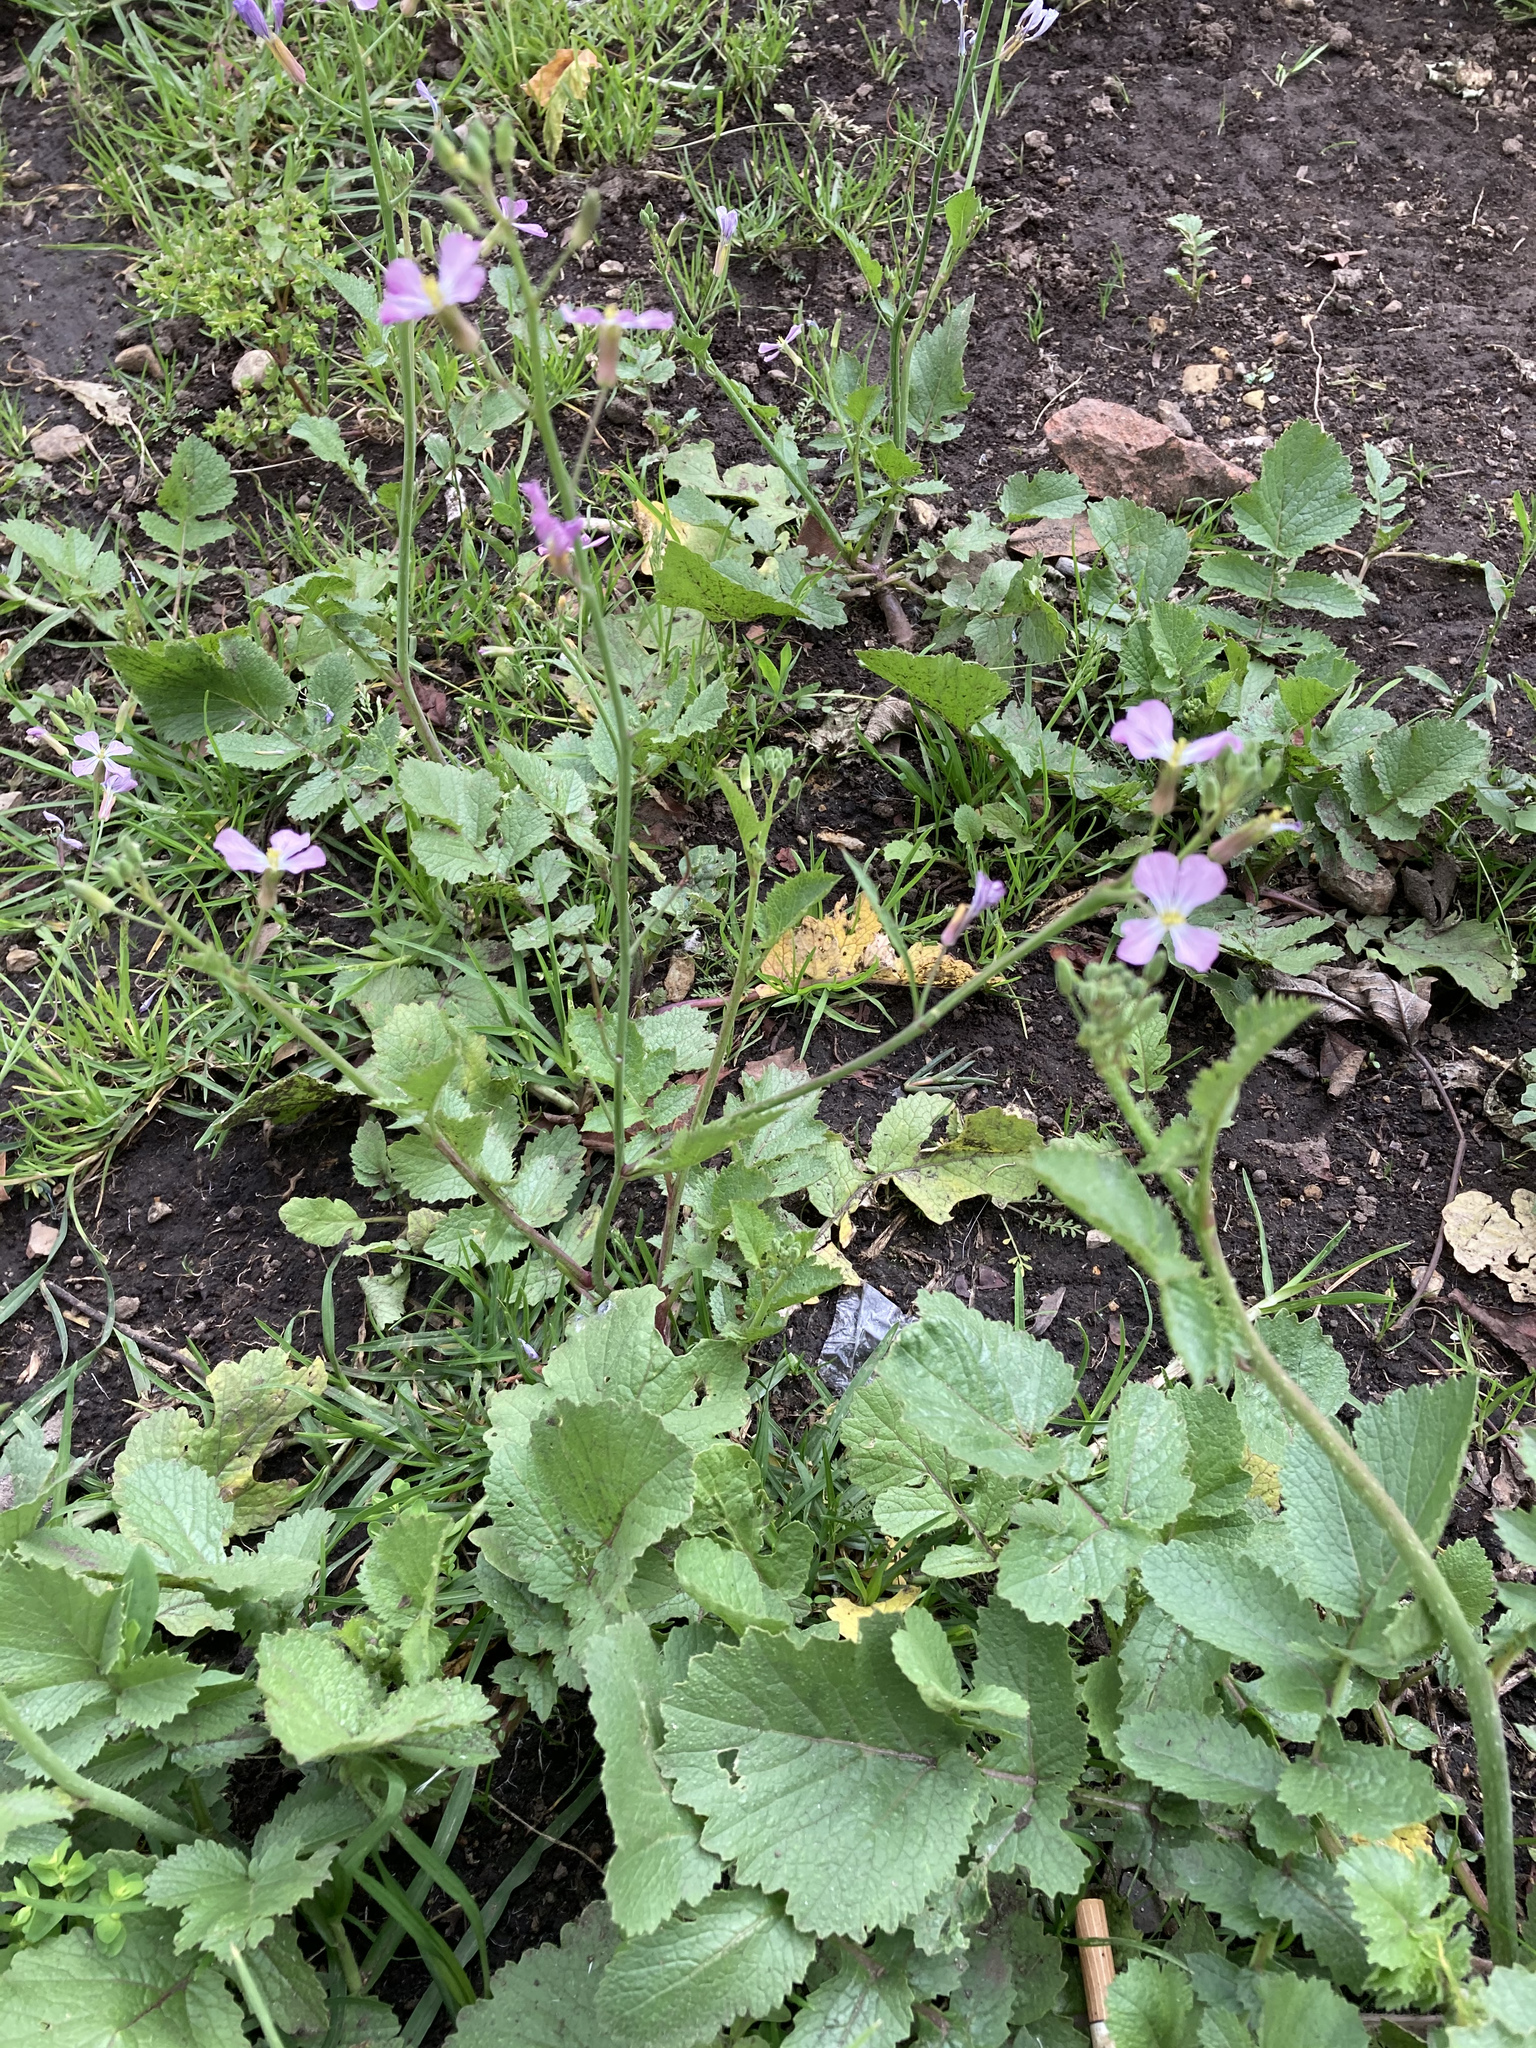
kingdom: Plantae
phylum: Tracheophyta
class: Magnoliopsida
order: Brassicales
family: Brassicaceae
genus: Raphanus
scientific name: Raphanus sativus
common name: Cultivated radish
